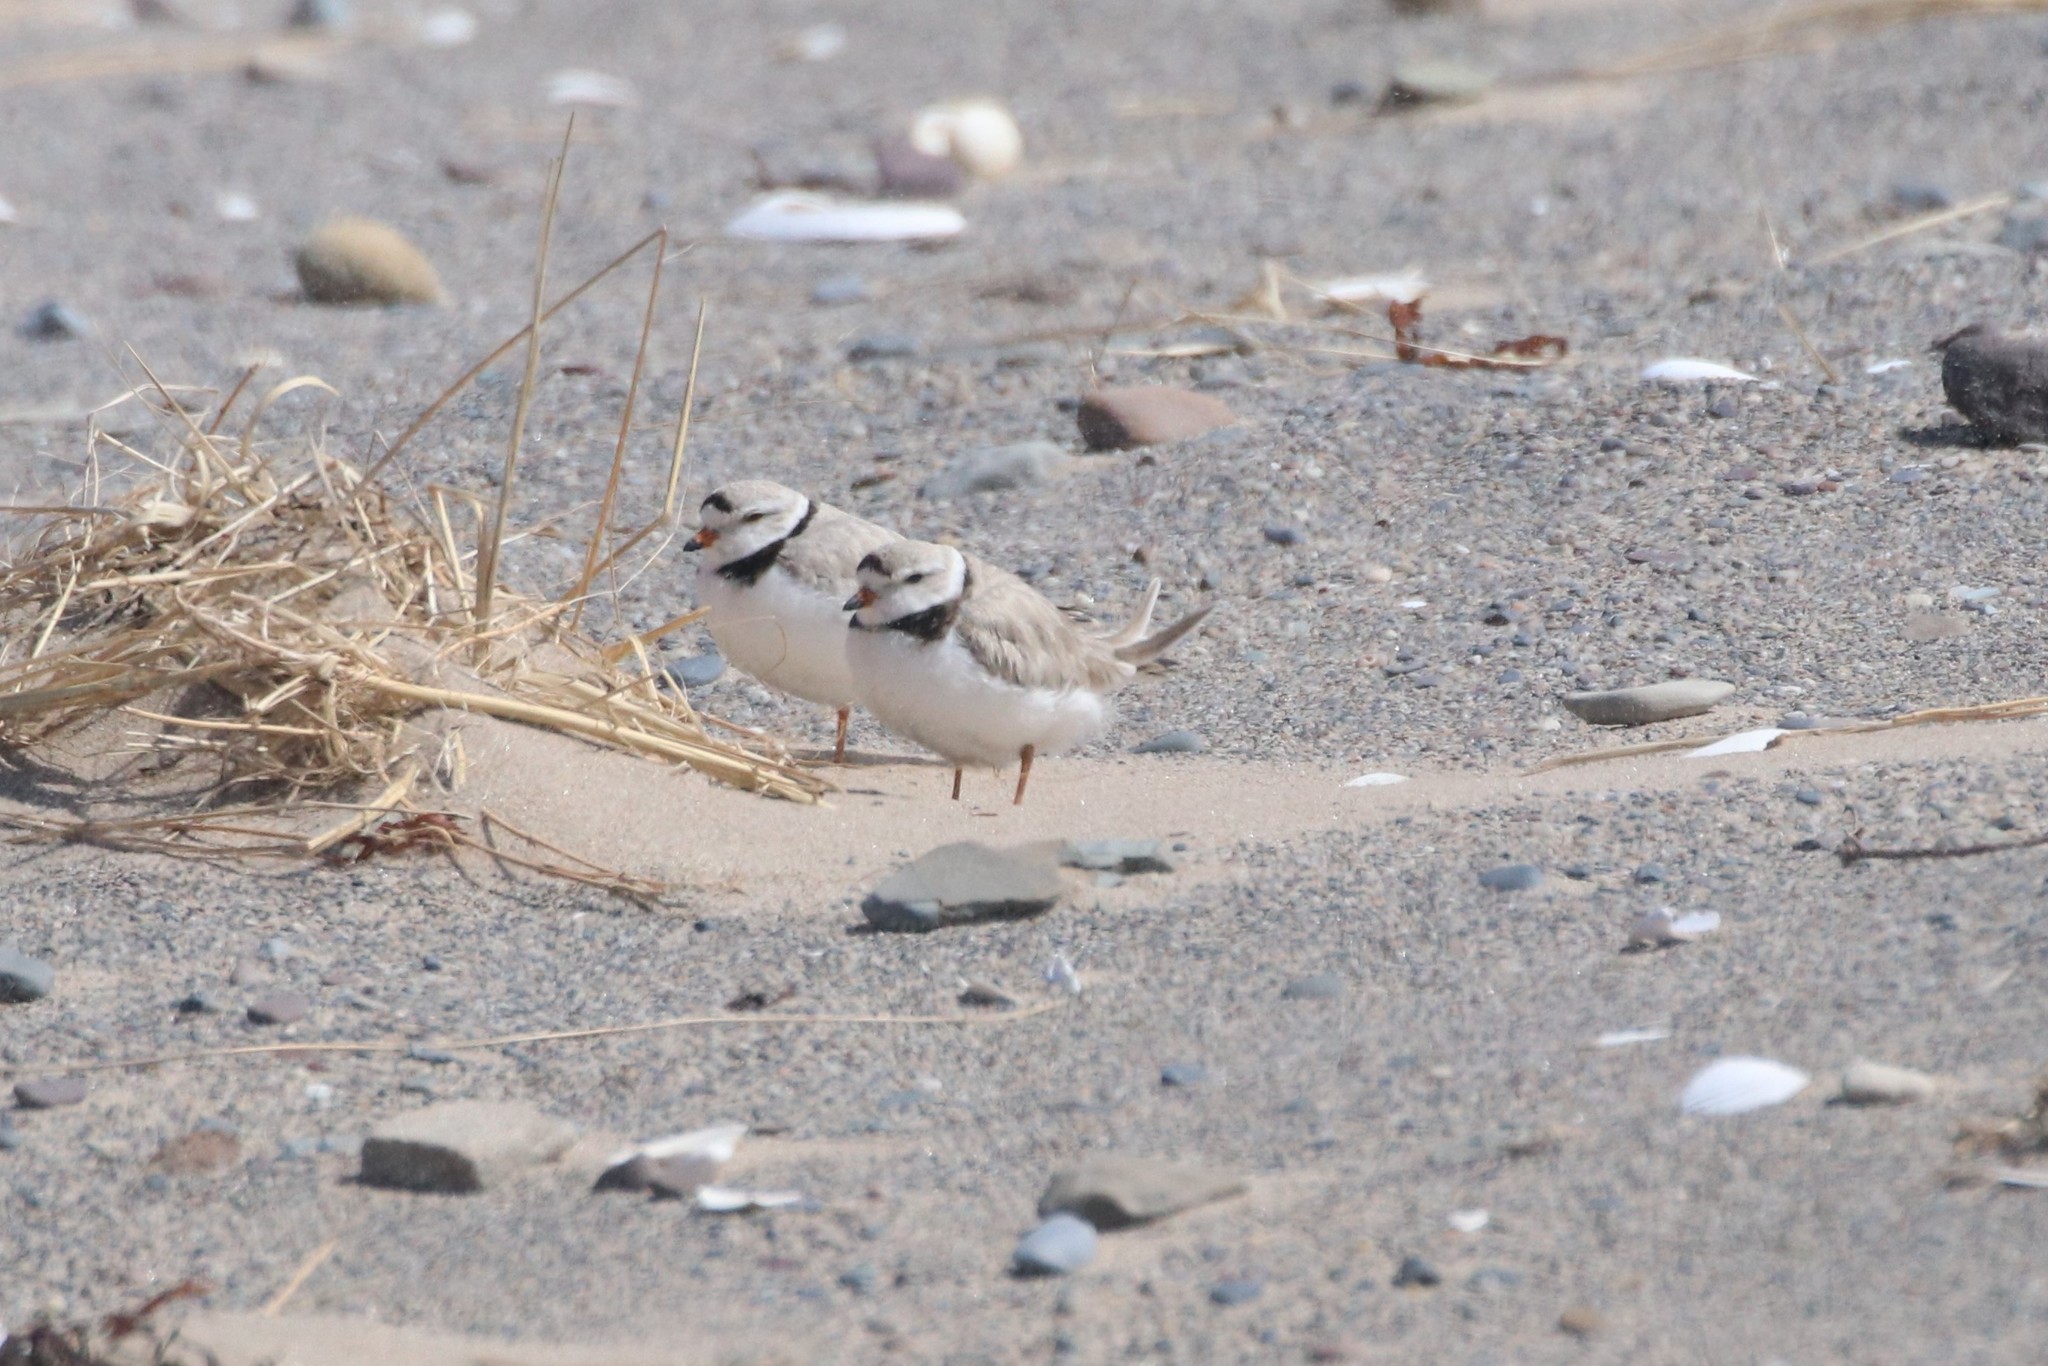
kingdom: Animalia
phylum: Chordata
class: Aves
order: Charadriiformes
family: Charadriidae
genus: Charadrius
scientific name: Charadrius melodus
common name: Piping plover
